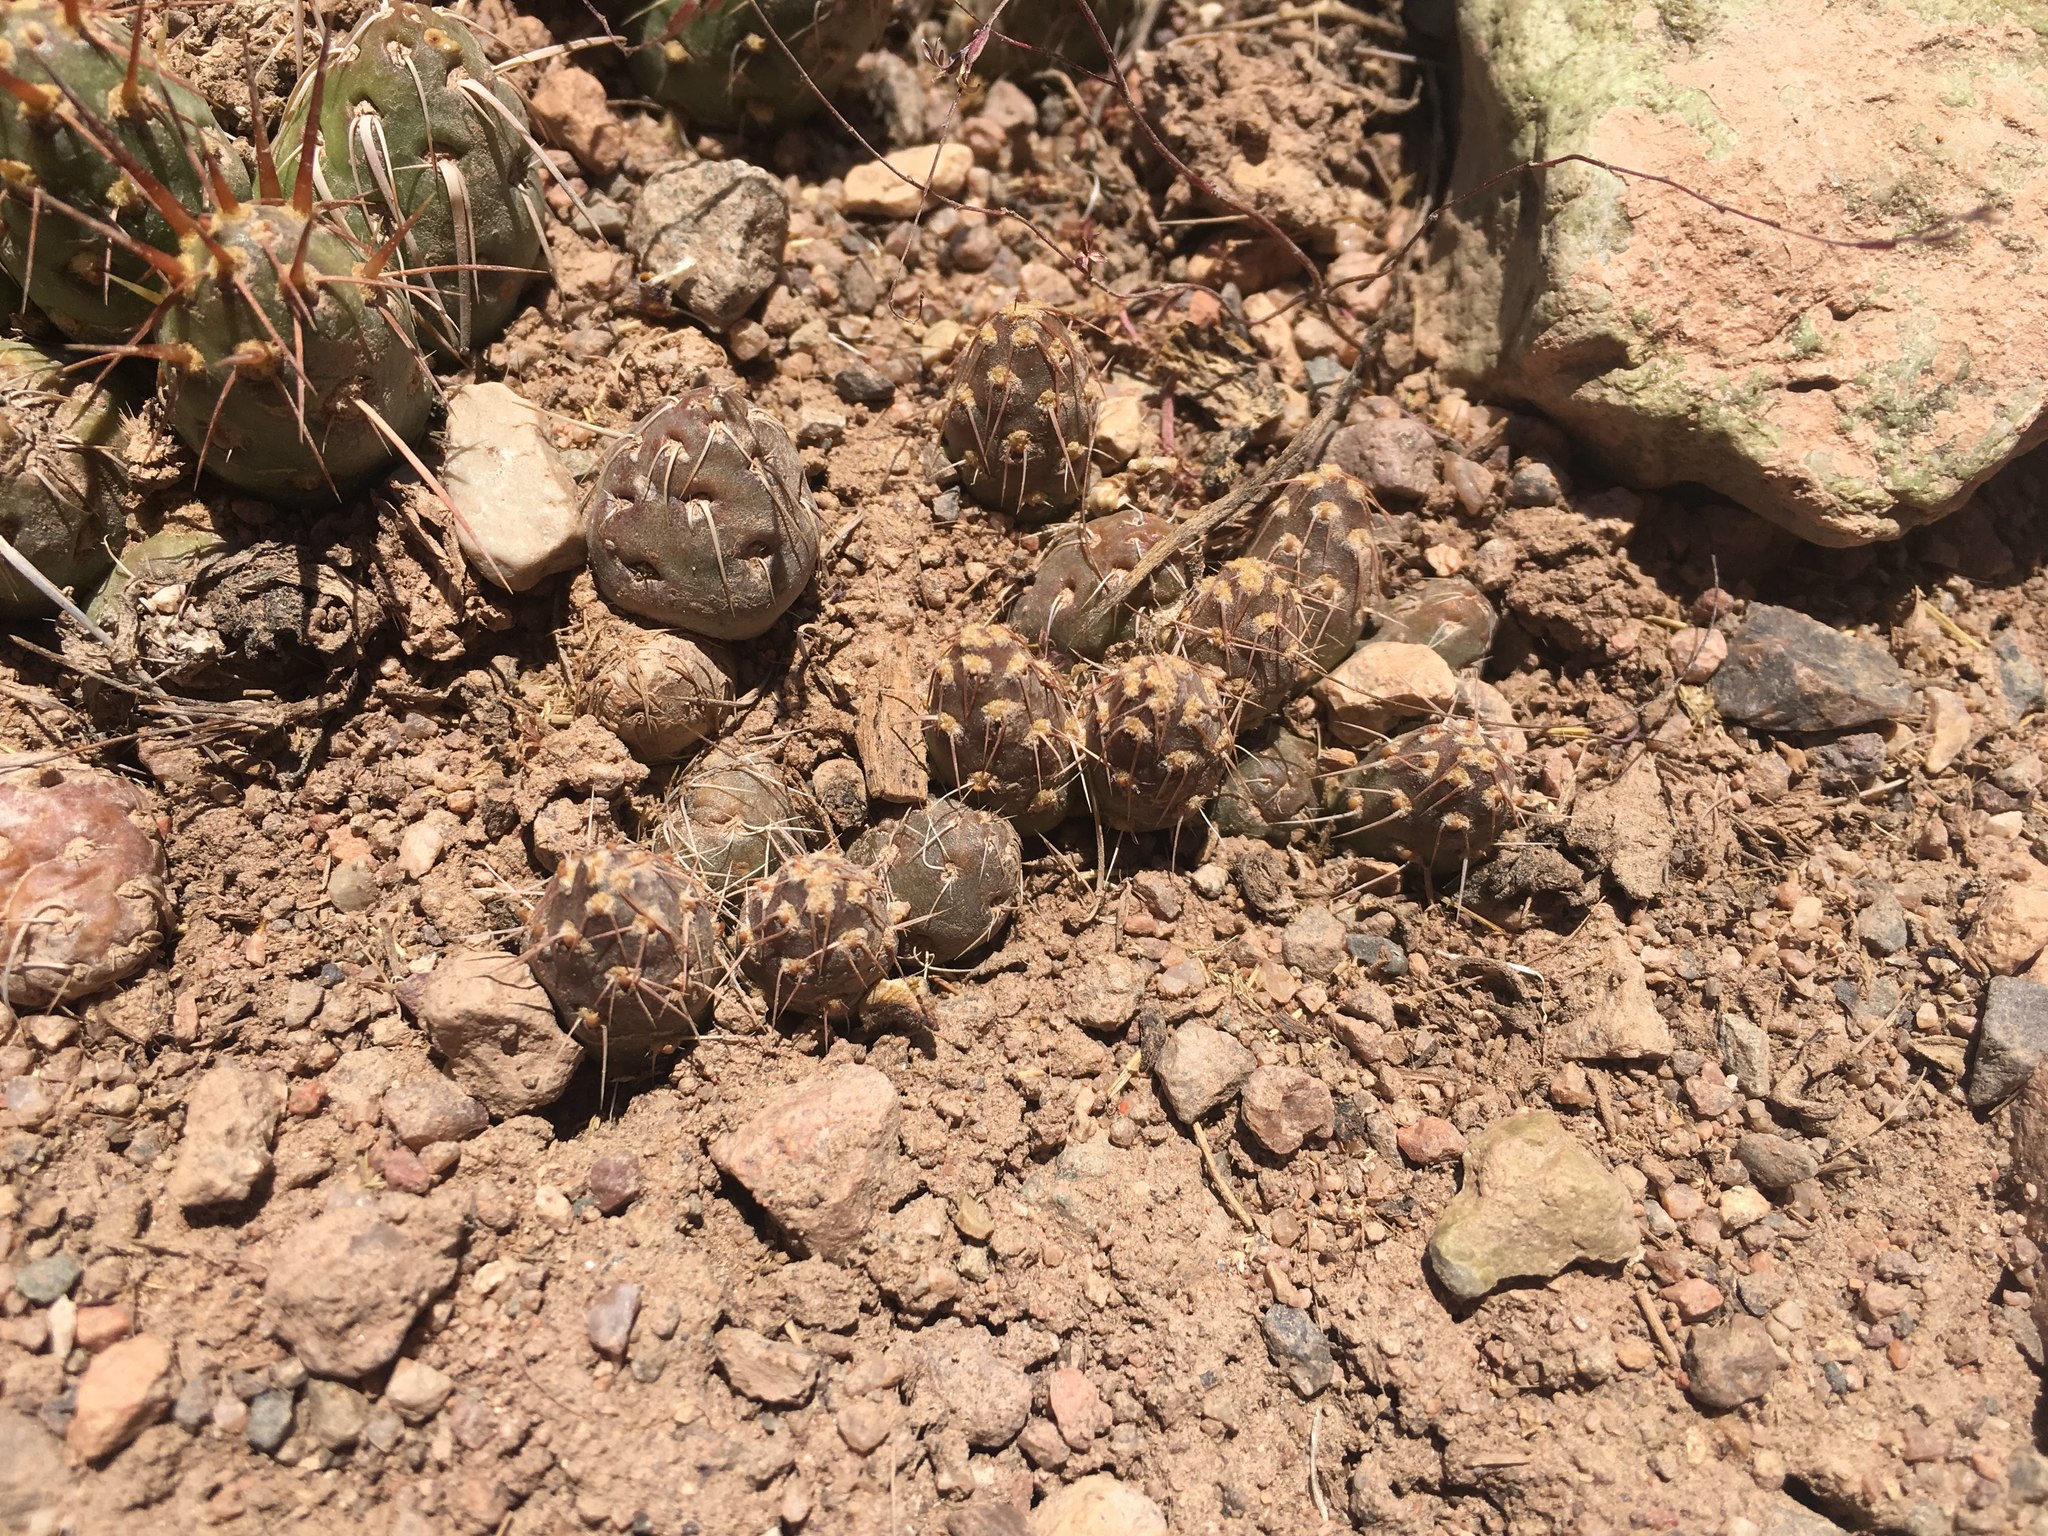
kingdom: Plantae
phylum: Tracheophyta
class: Magnoliopsida
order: Caryophyllales
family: Cactaceae
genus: Maihueniopsis
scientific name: Maihueniopsis archiconoidea
